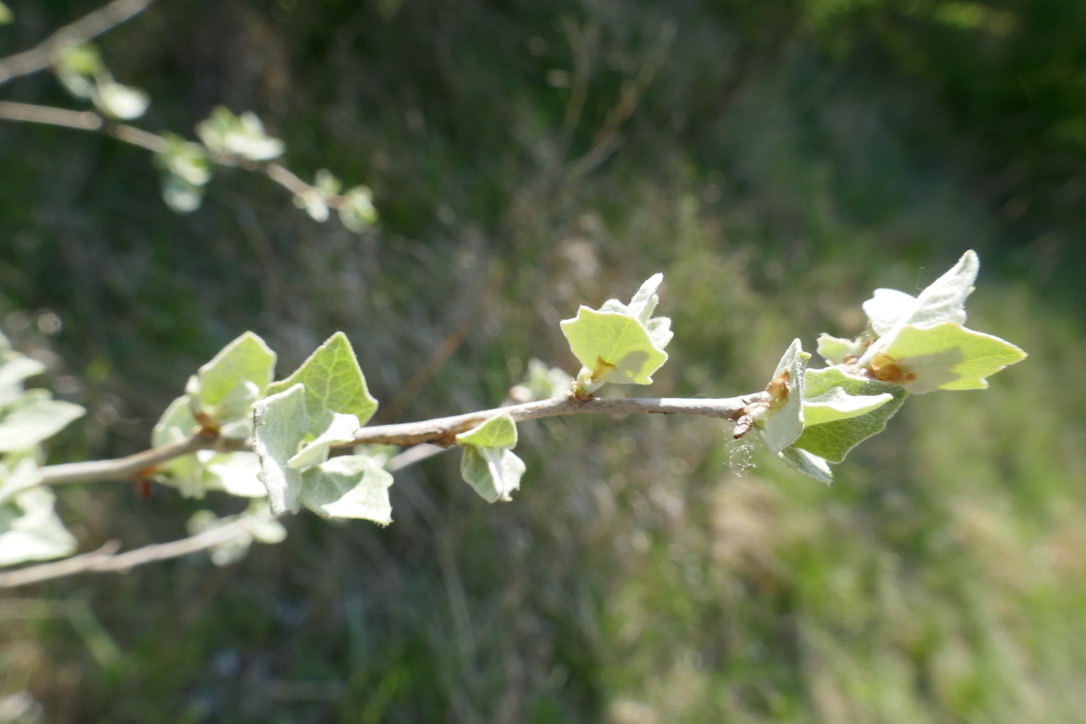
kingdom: Plantae
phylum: Tracheophyta
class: Magnoliopsida
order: Malpighiales
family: Salicaceae
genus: Populus
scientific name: Populus alba
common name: White poplar
